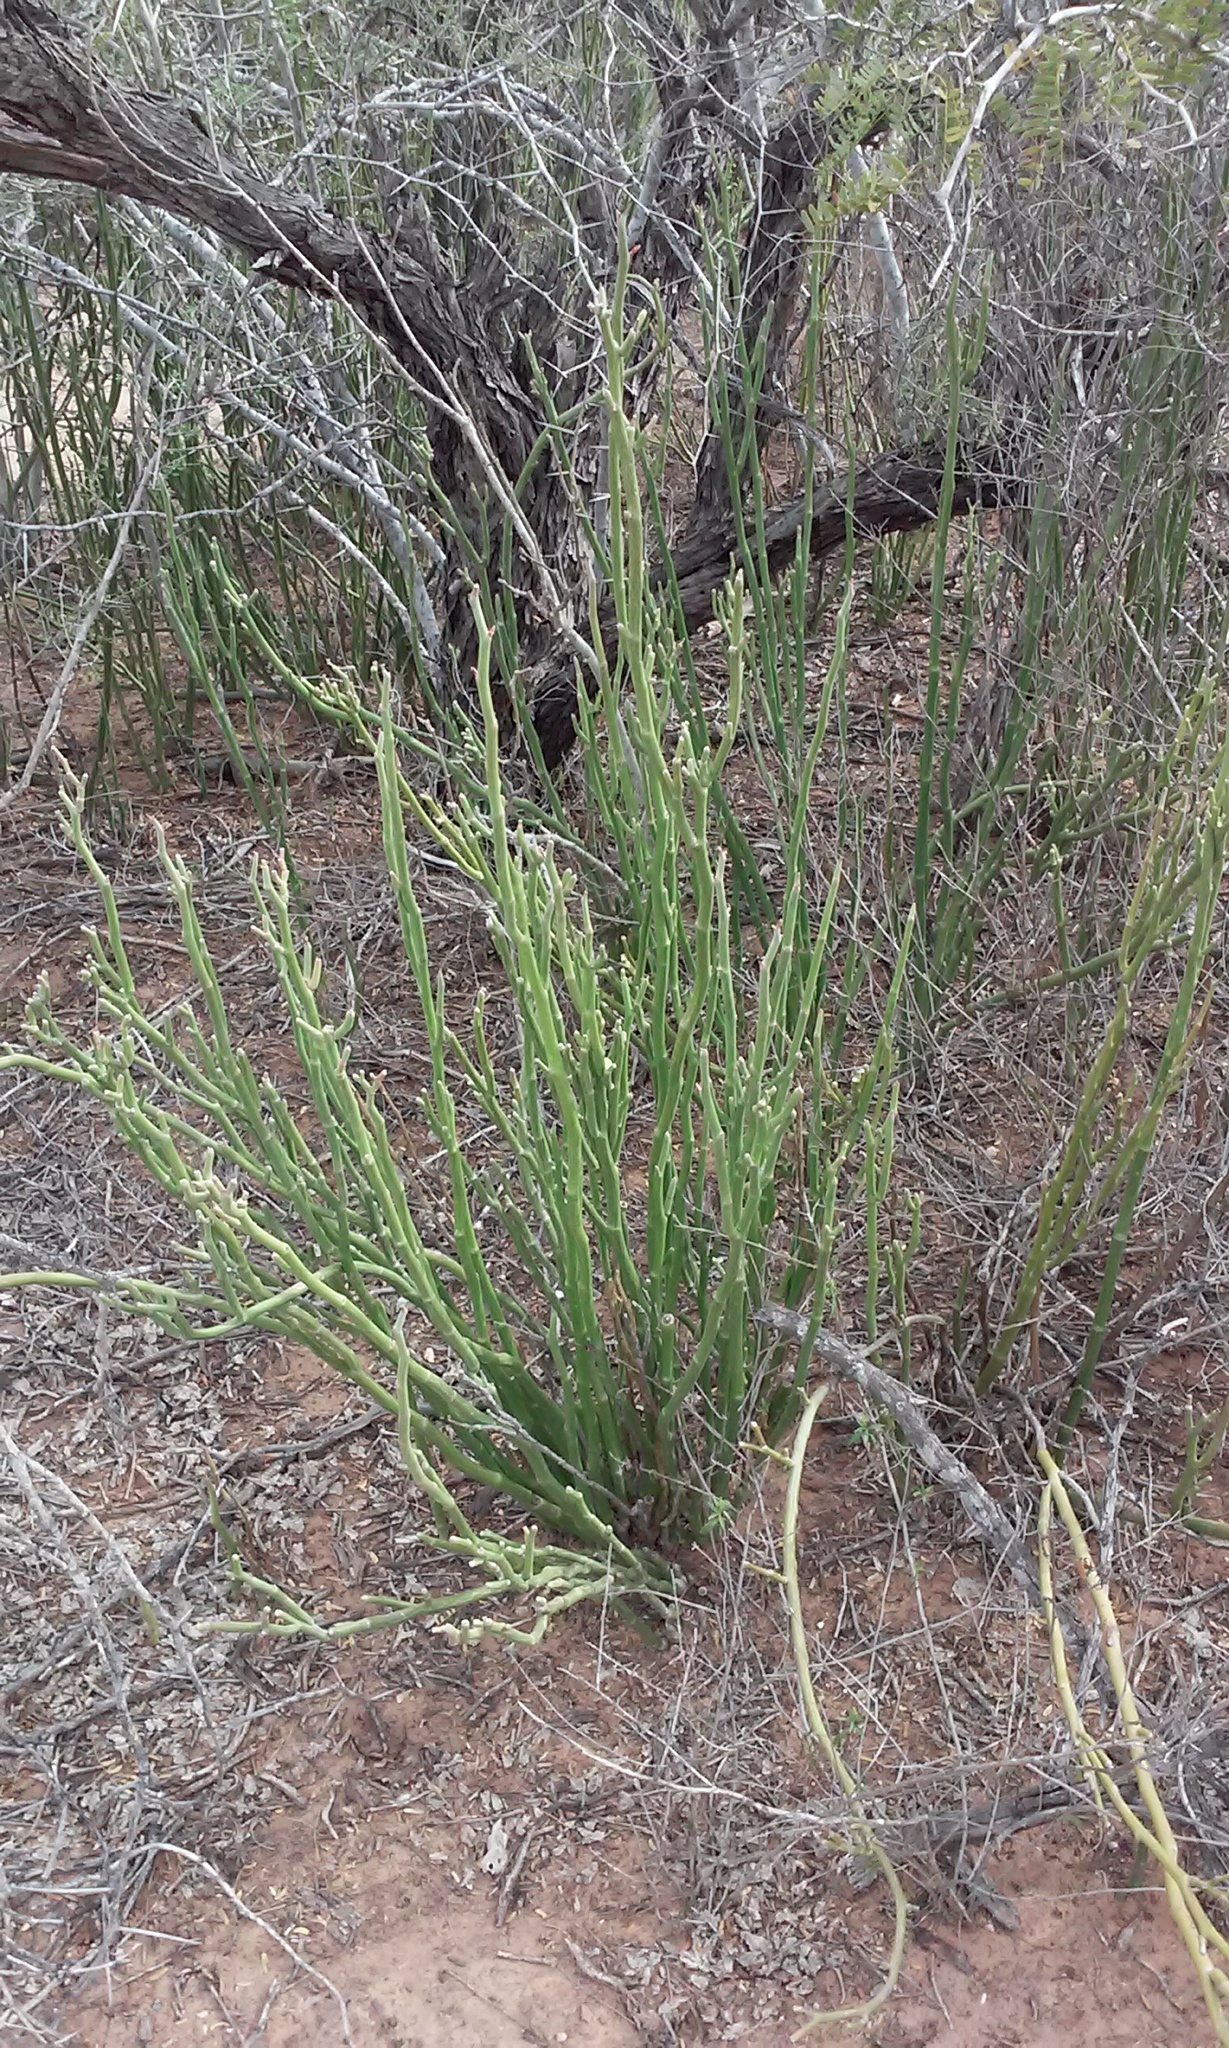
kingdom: Plantae
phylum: Tracheophyta
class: Magnoliopsida
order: Malpighiales
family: Euphorbiaceae
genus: Euphorbia
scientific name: Euphorbia lomelii
